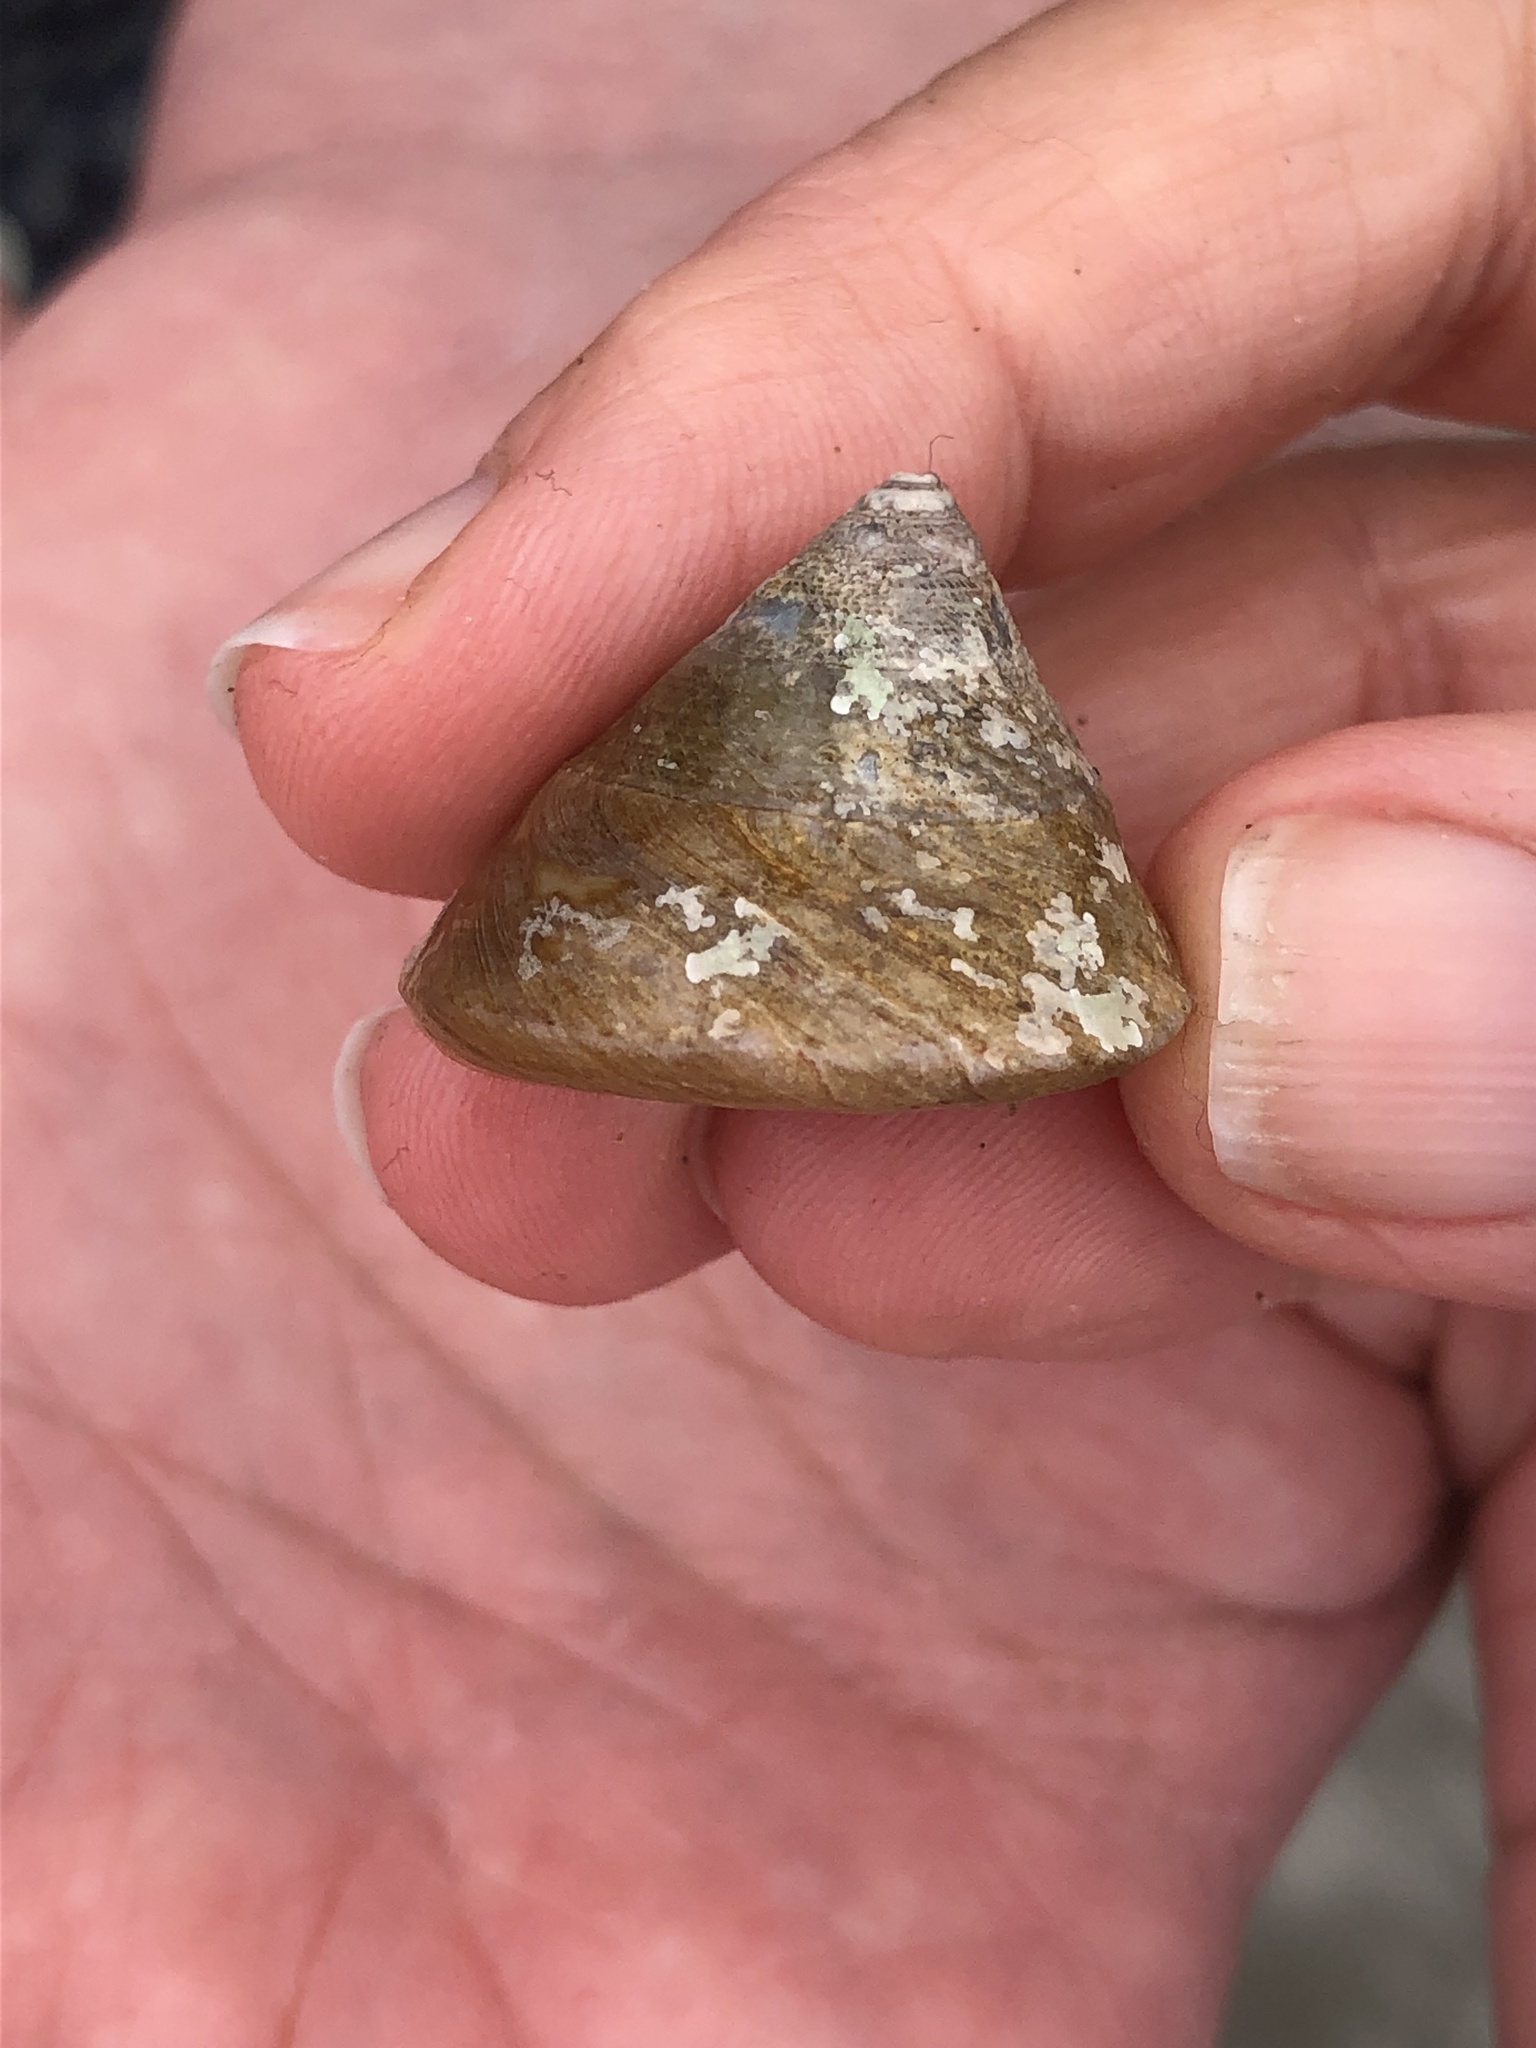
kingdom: Animalia
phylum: Mollusca
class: Gastropoda
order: Trochida
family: Tegulidae
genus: Tegula
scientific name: Tegula montereyi
